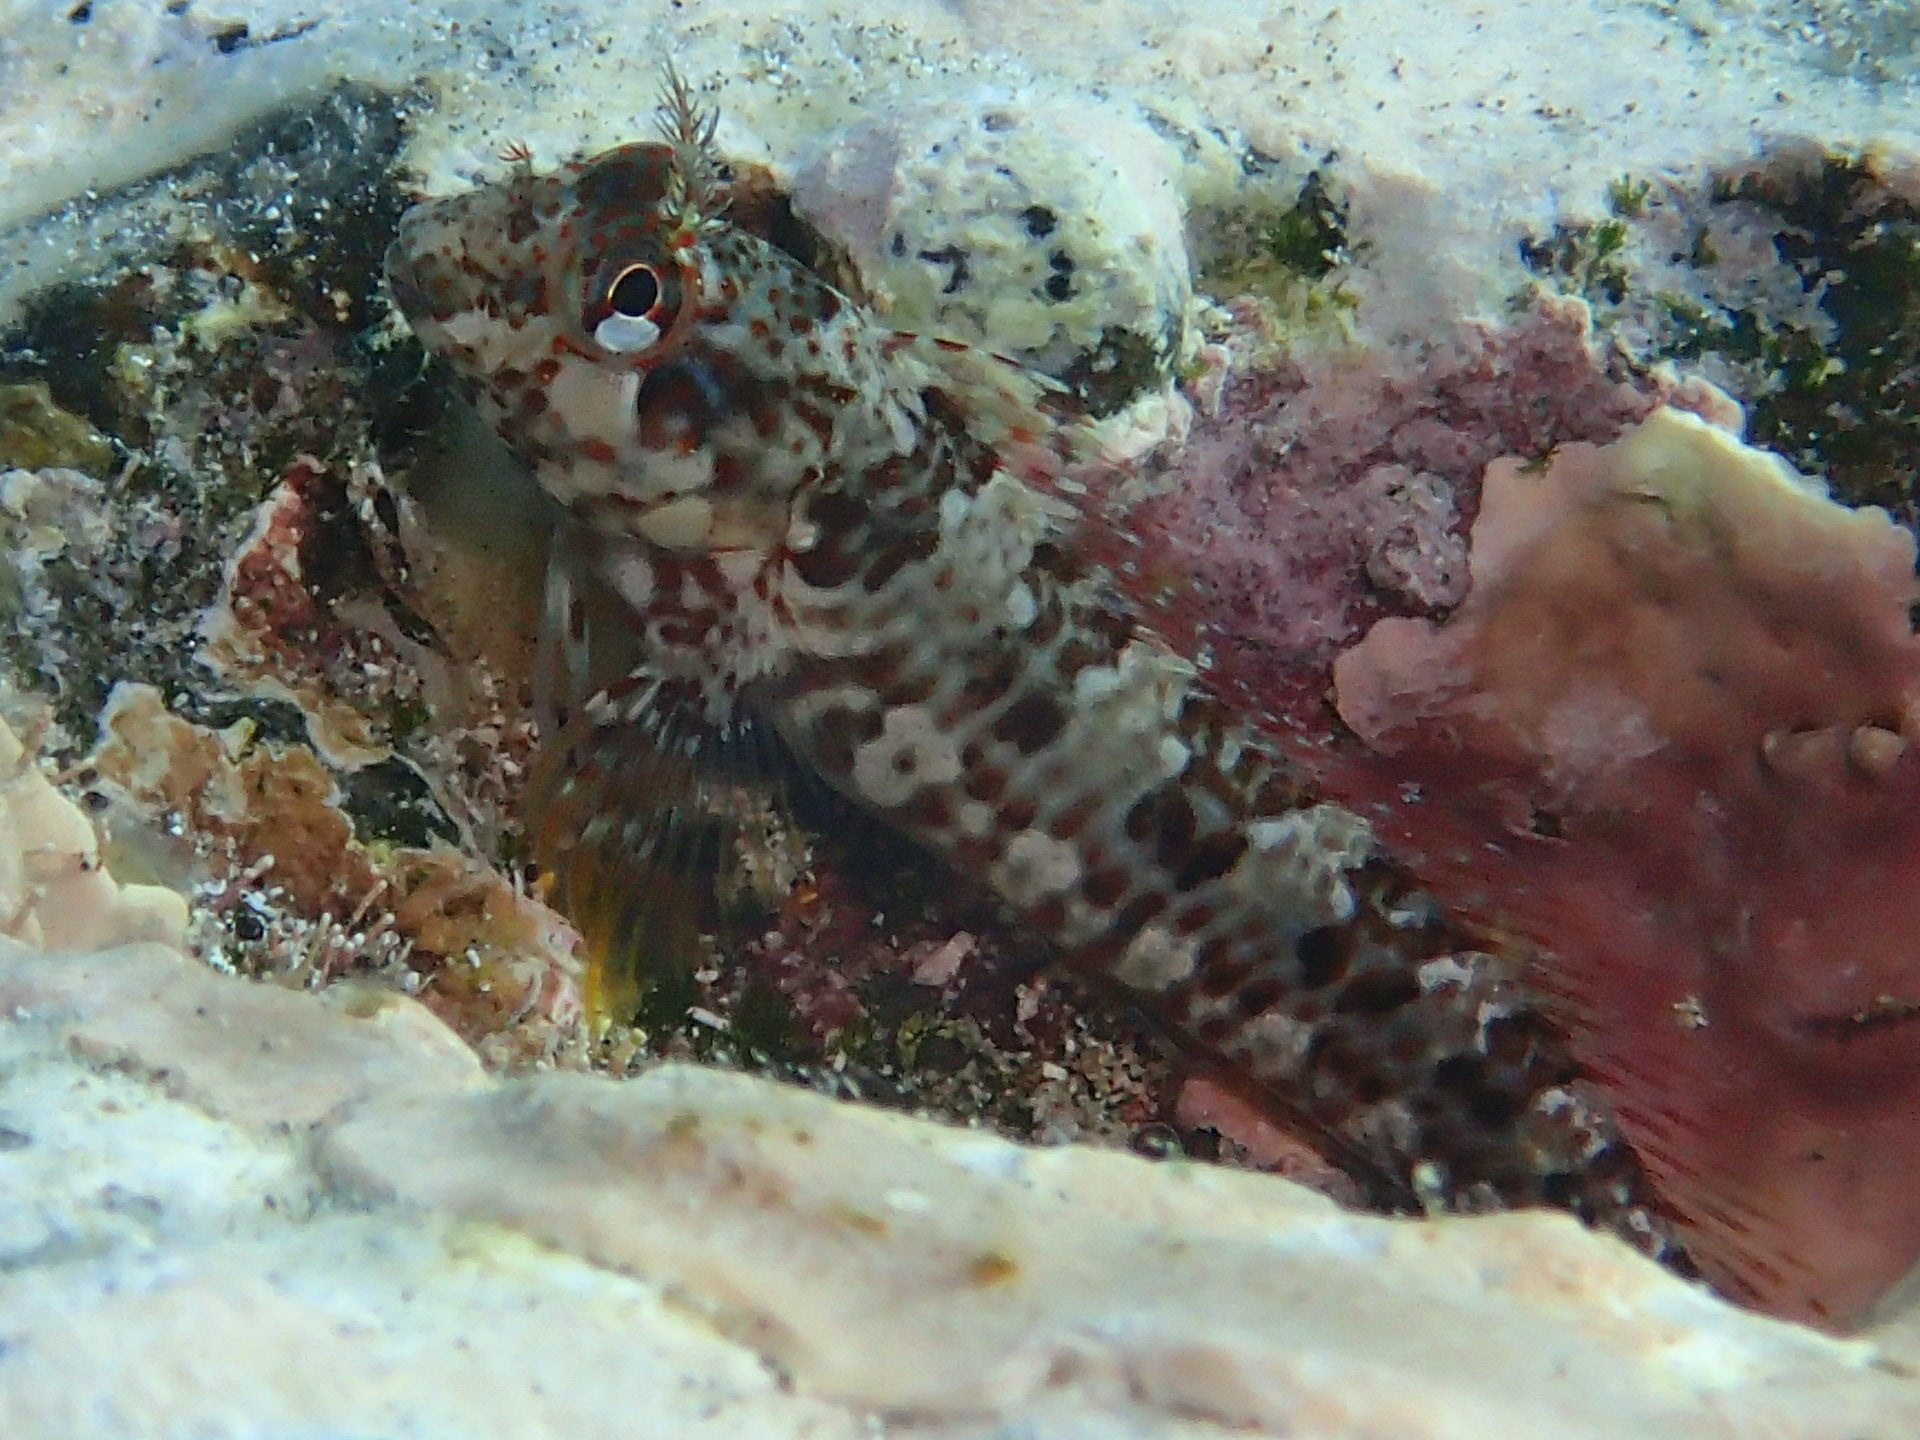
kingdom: Animalia
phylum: Chordata
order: Perciformes
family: Blenniidae
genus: Parablennius
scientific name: Parablennius ruber
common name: Portuguese blenny
